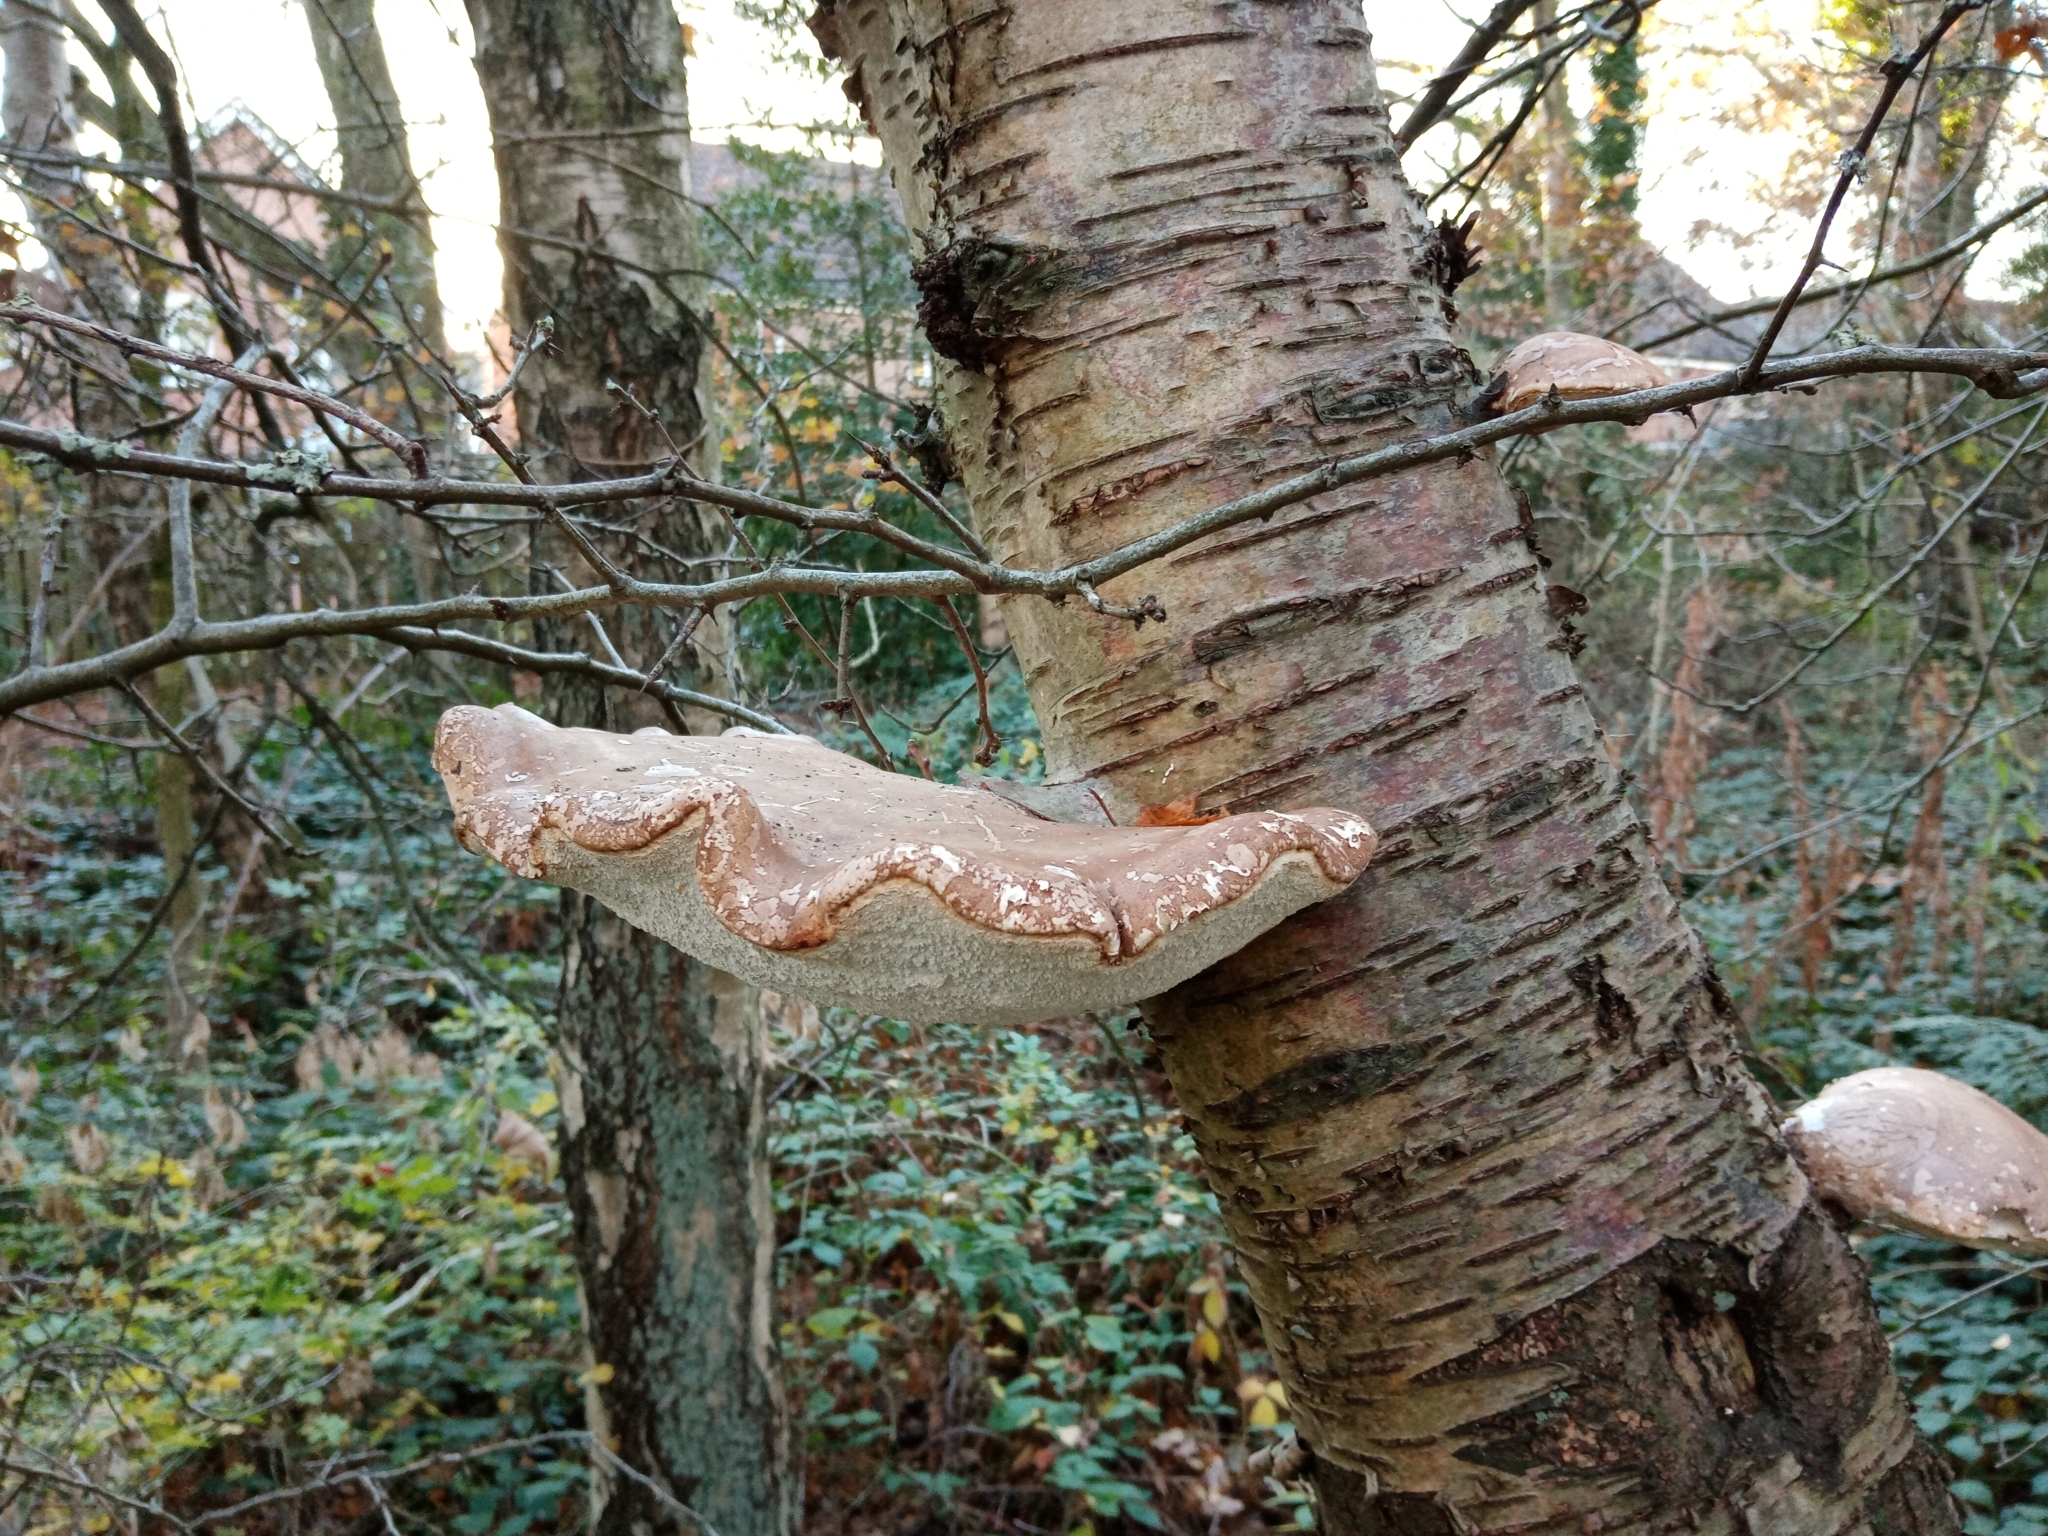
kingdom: Fungi
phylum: Basidiomycota
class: Agaricomycetes
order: Polyporales
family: Fomitopsidaceae
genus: Fomitopsis
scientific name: Fomitopsis betulina
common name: Birch polypore
